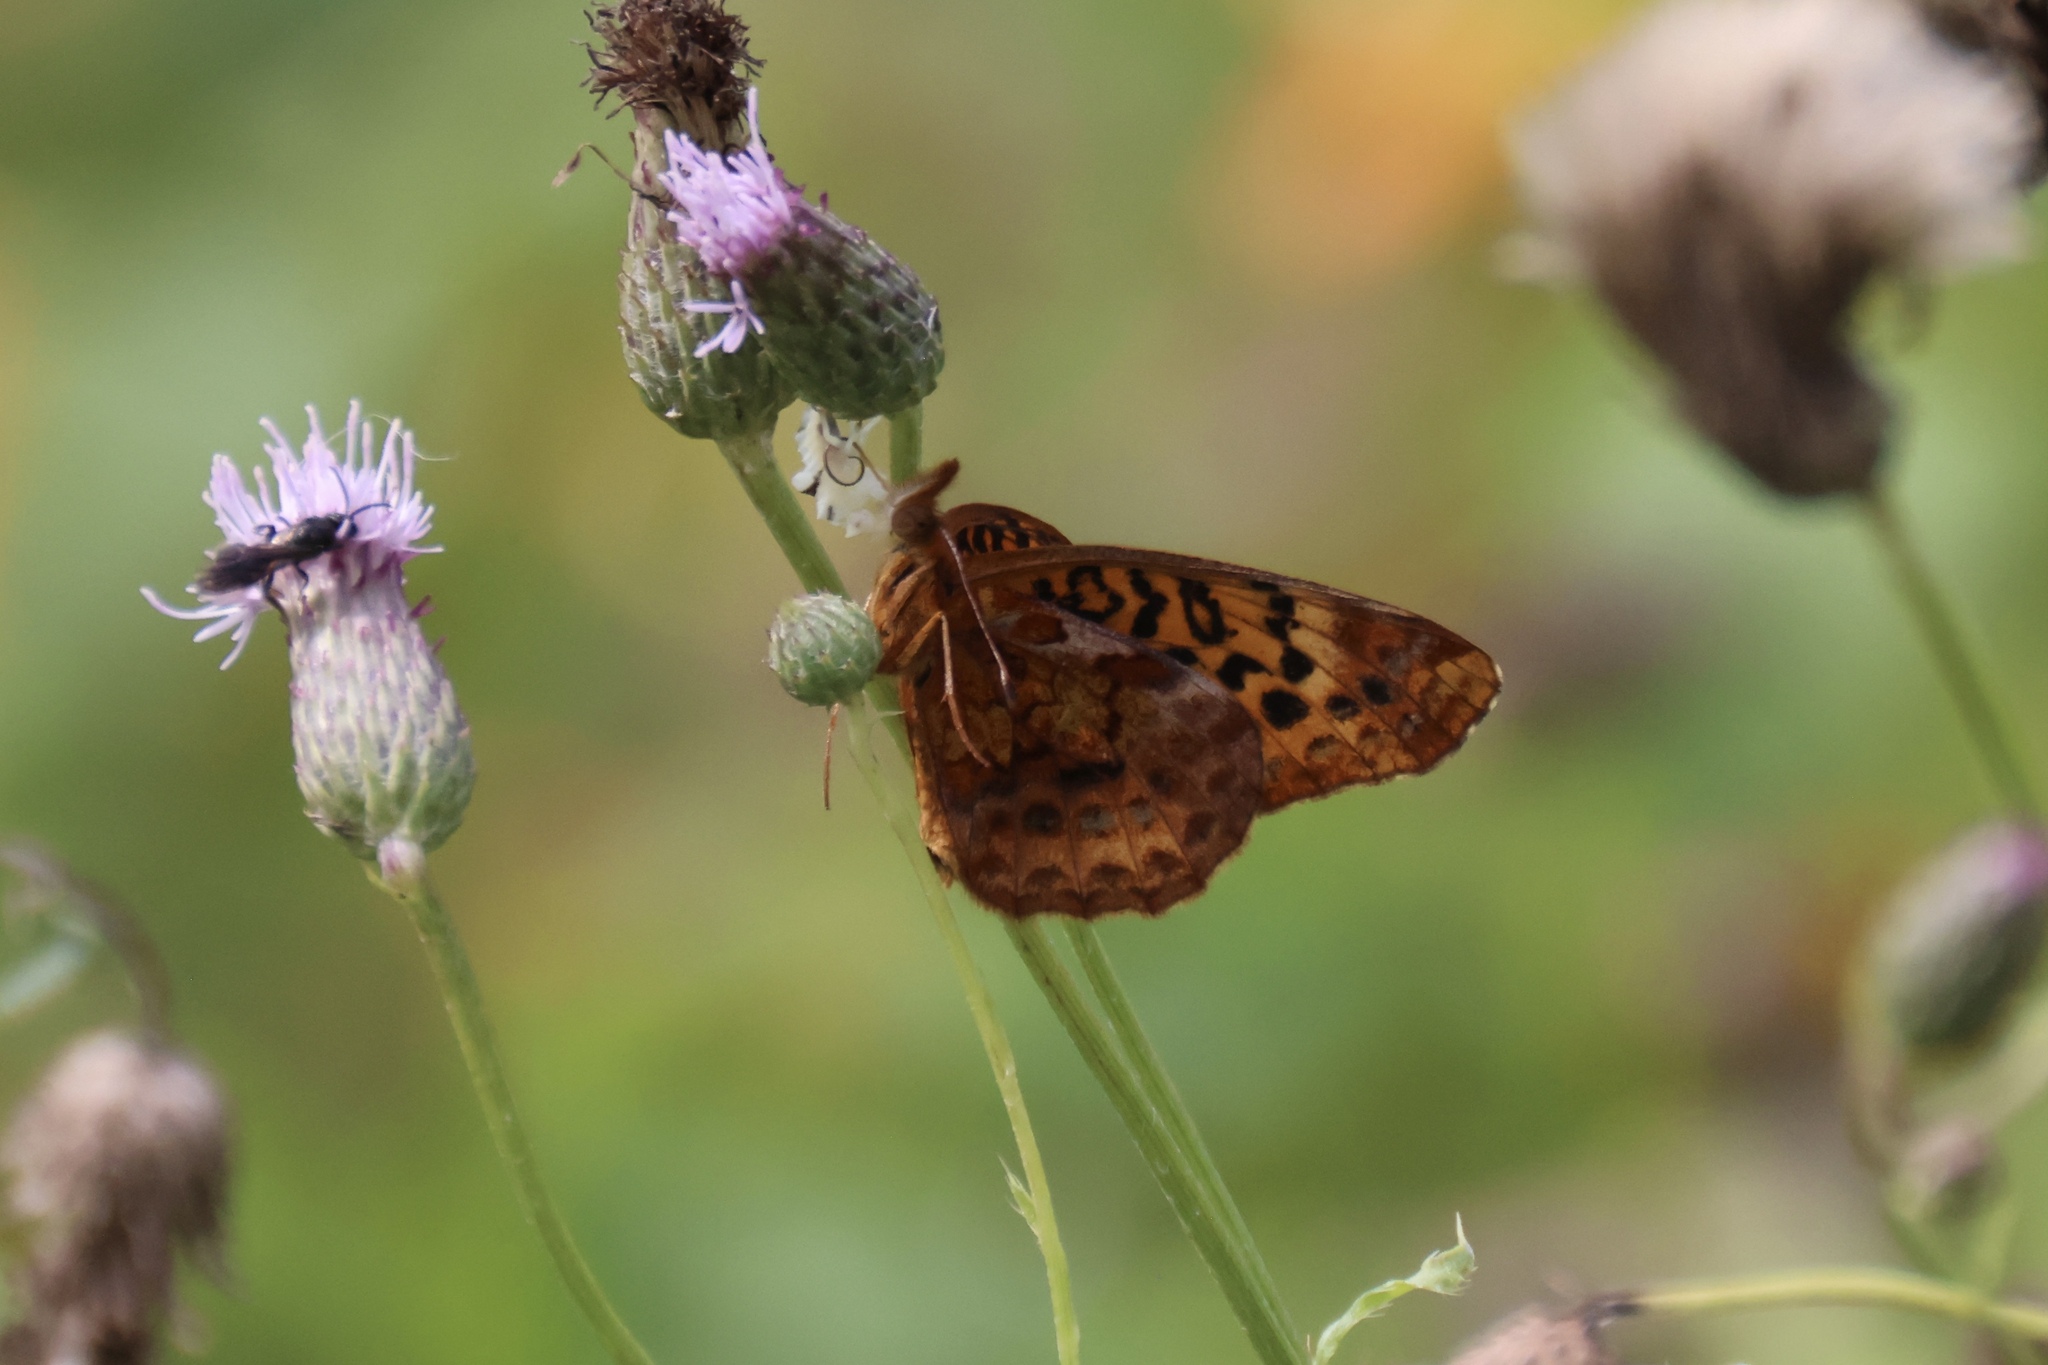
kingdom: Animalia
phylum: Arthropoda
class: Insecta
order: Lepidoptera
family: Nymphalidae
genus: Clossiana
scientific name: Clossiana toddi
